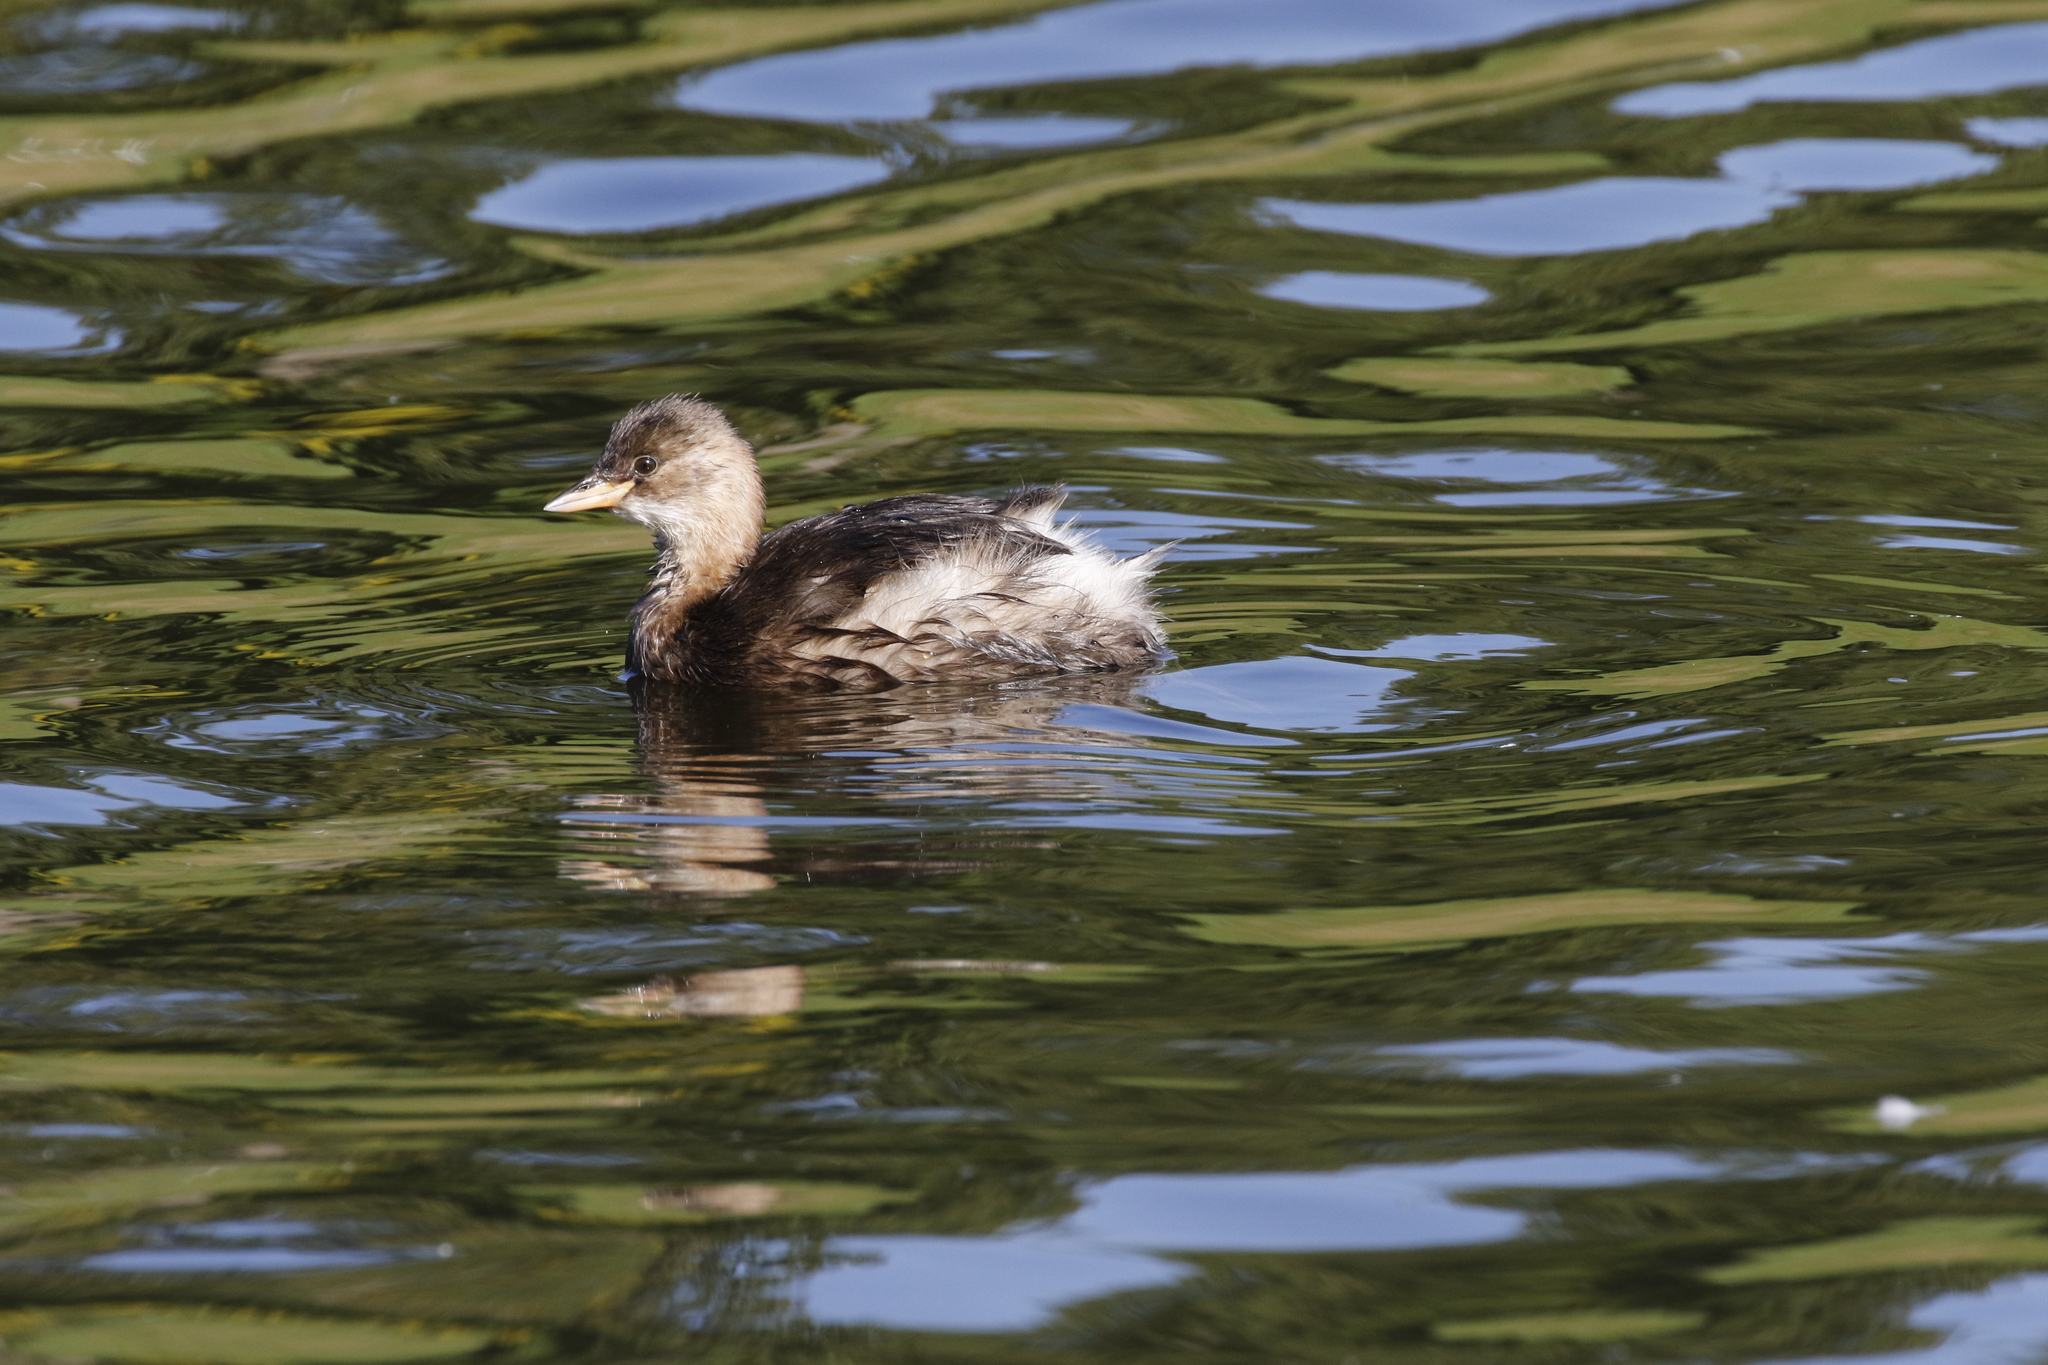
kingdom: Animalia
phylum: Chordata
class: Aves
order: Podicipediformes
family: Podicipedidae
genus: Tachybaptus
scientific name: Tachybaptus ruficollis
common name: Little grebe
